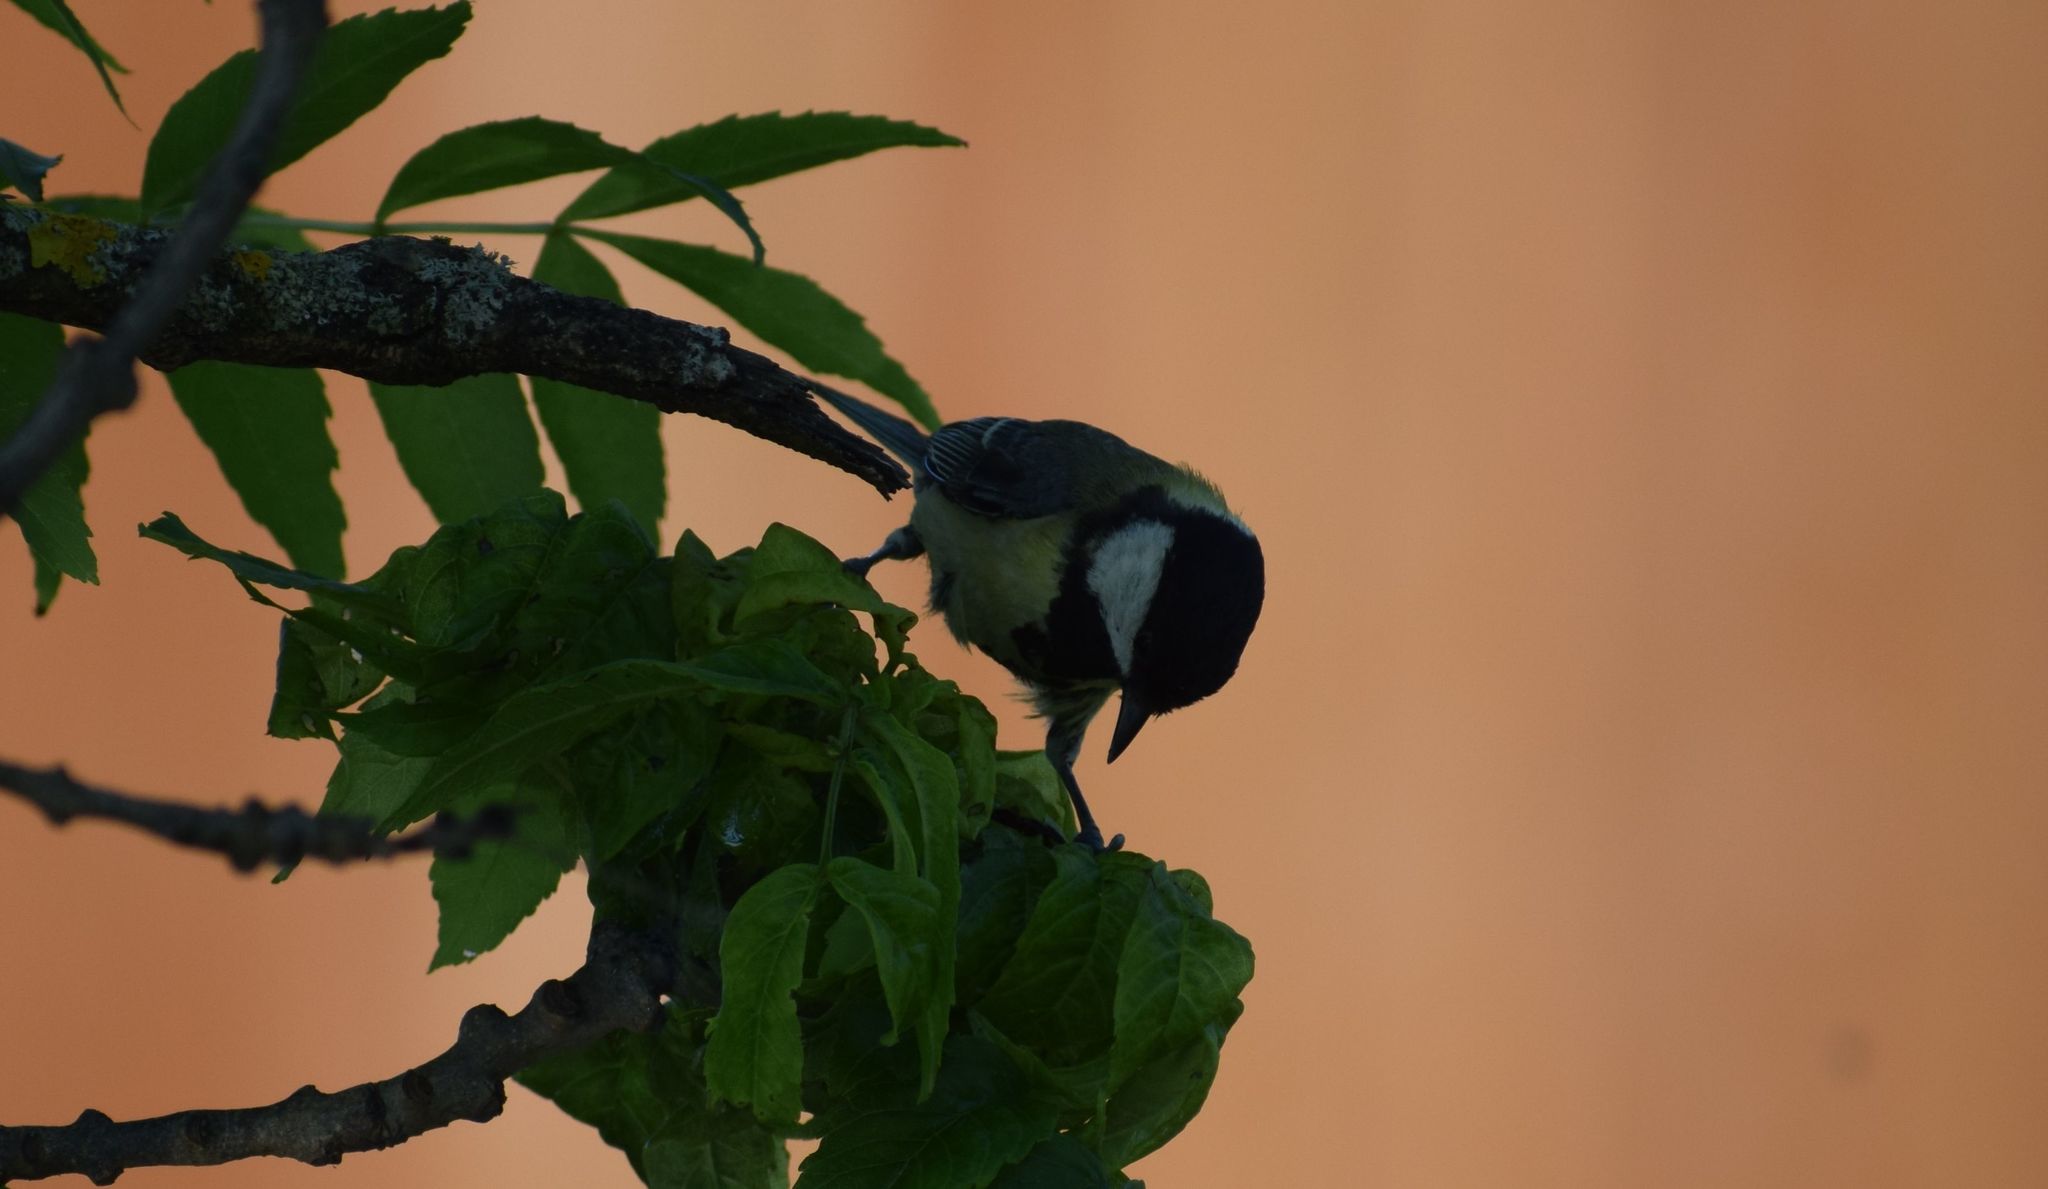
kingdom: Animalia
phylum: Chordata
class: Aves
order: Passeriformes
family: Paridae
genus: Parus
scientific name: Parus major
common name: Great tit
